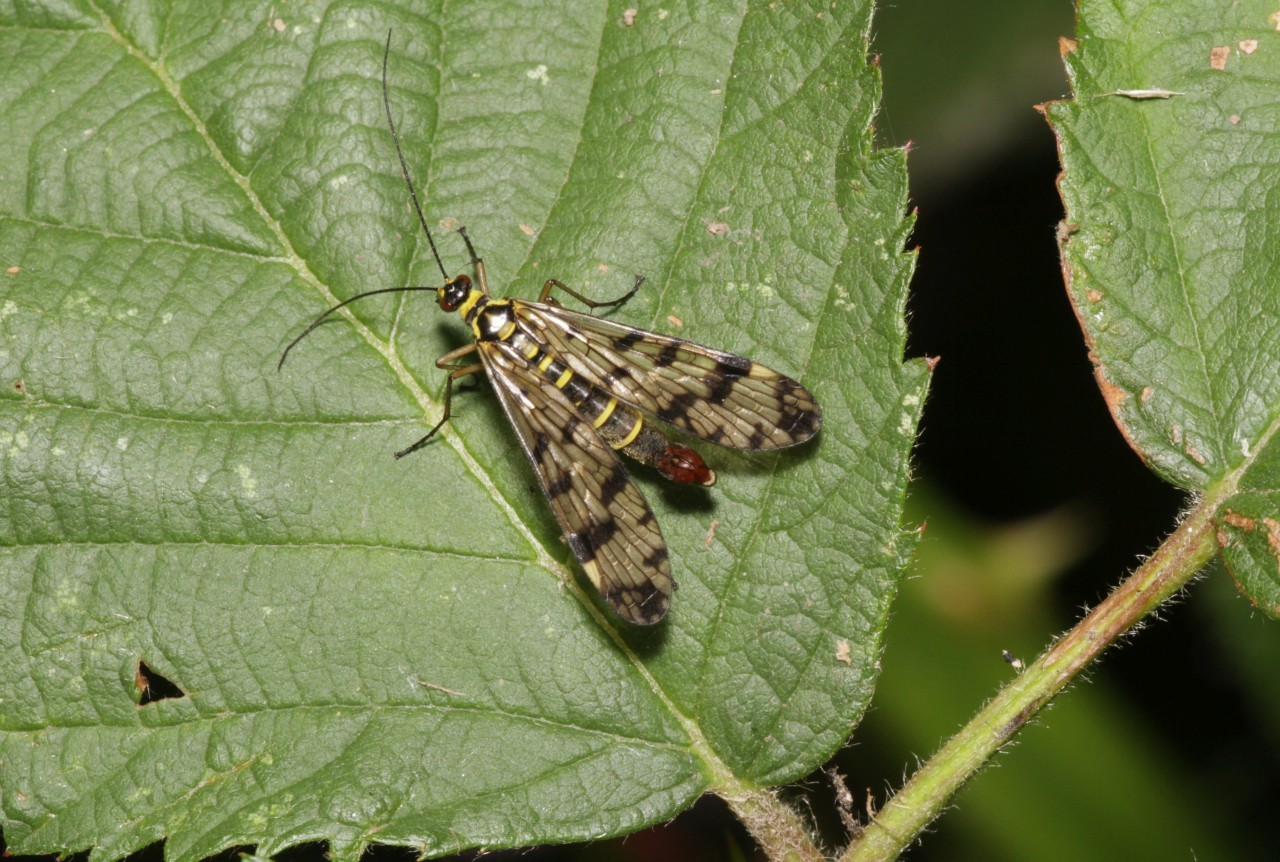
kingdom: Animalia
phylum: Arthropoda
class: Insecta
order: Mecoptera
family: Panorpidae
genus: Panorpa
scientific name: Panorpa communis
